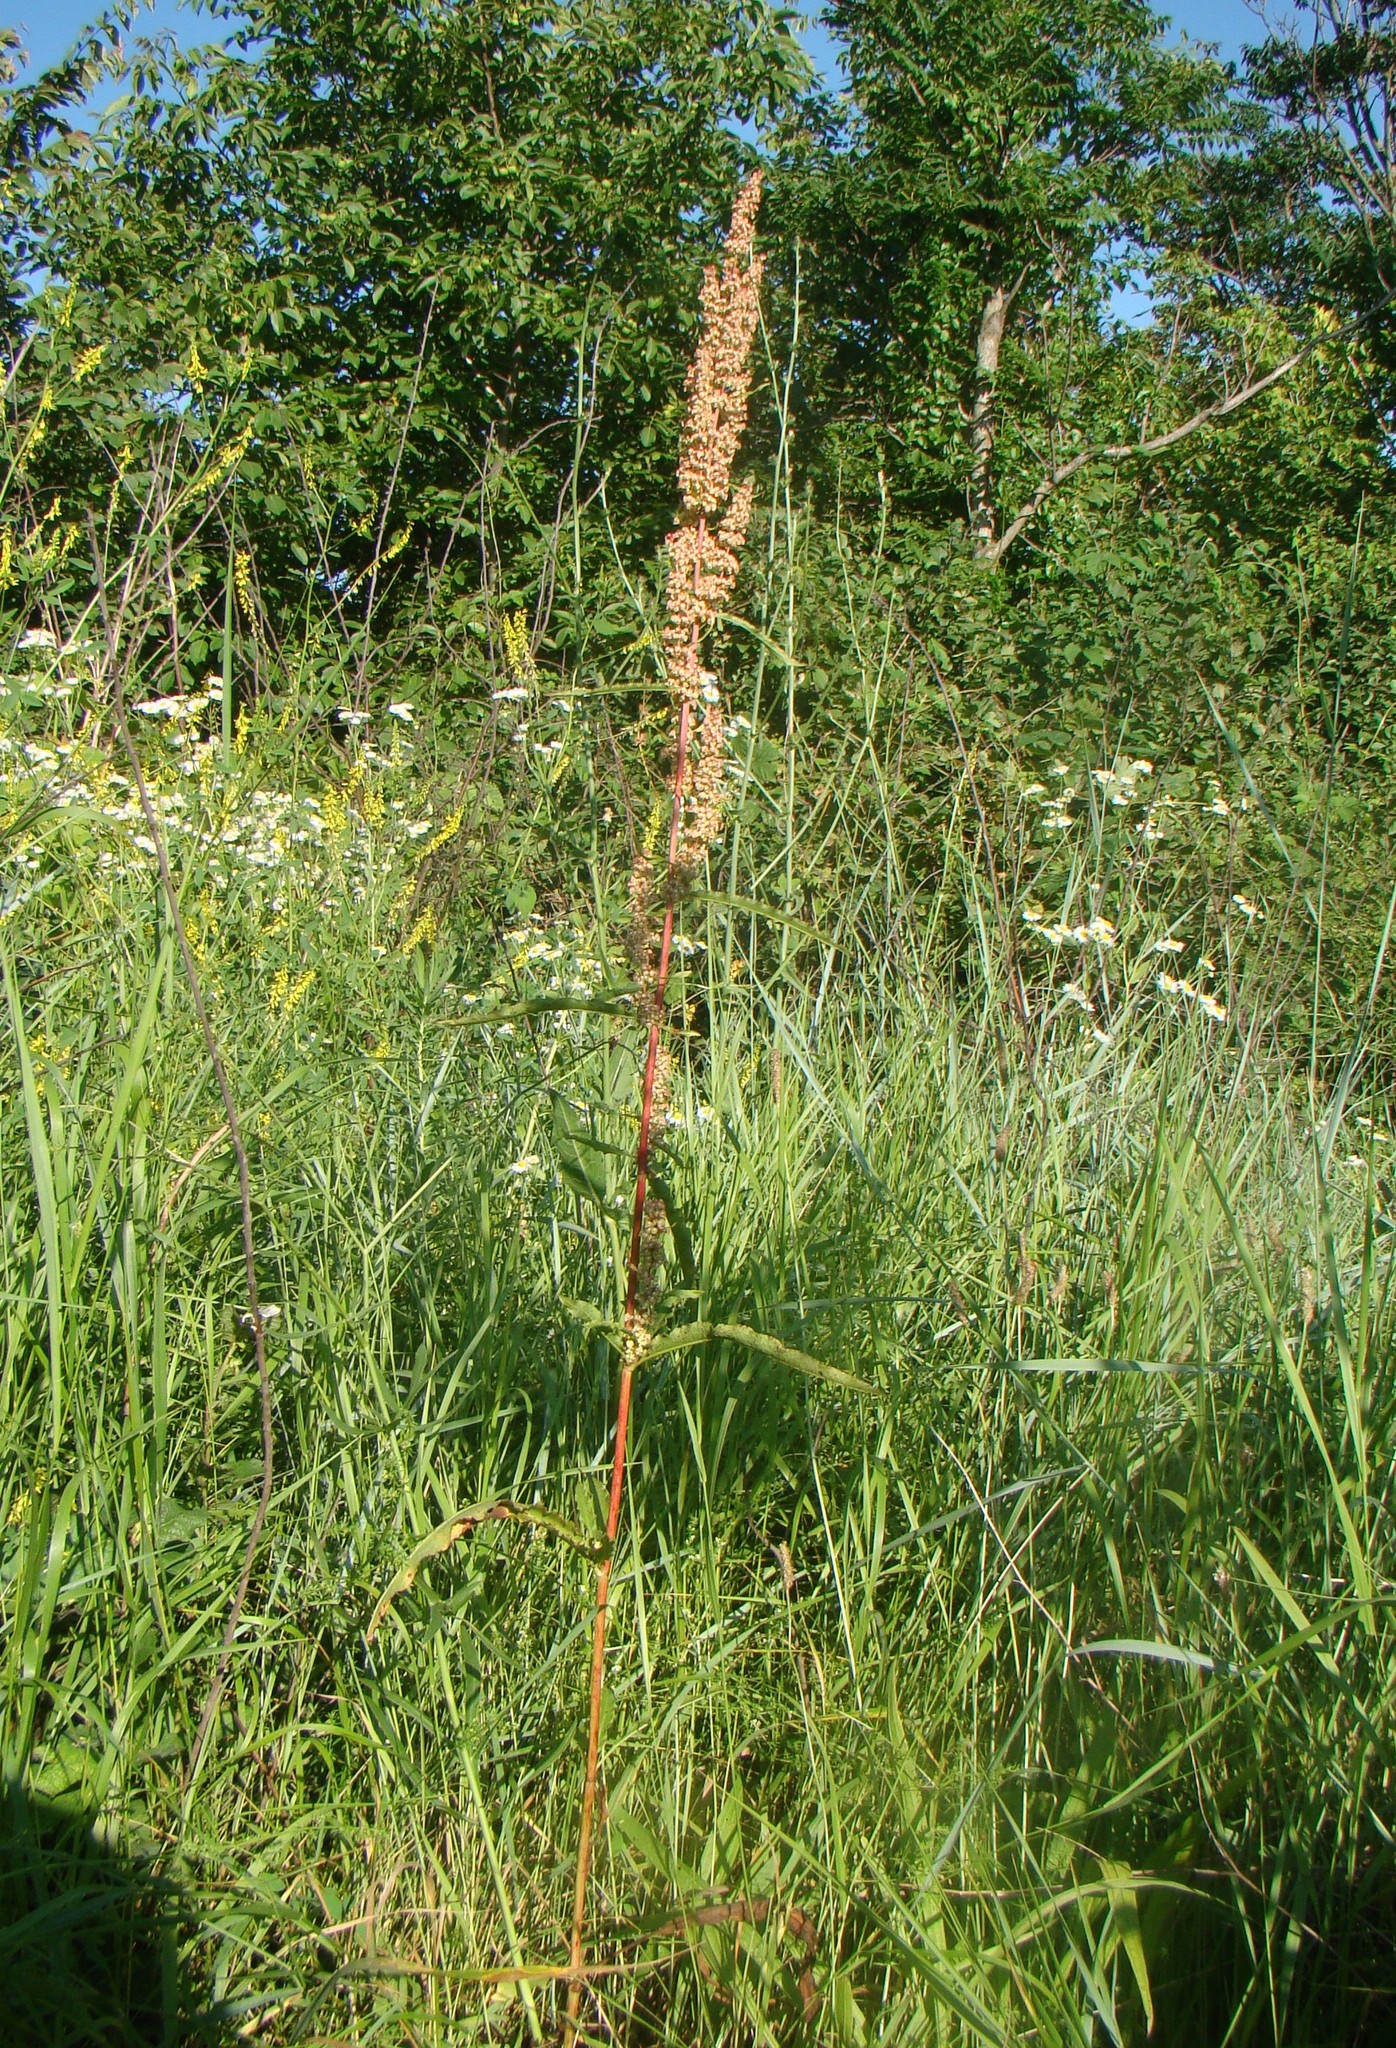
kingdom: Plantae
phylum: Tracheophyta
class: Magnoliopsida
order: Caryophyllales
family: Polygonaceae
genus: Rumex
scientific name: Rumex crispus
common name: Curled dock
